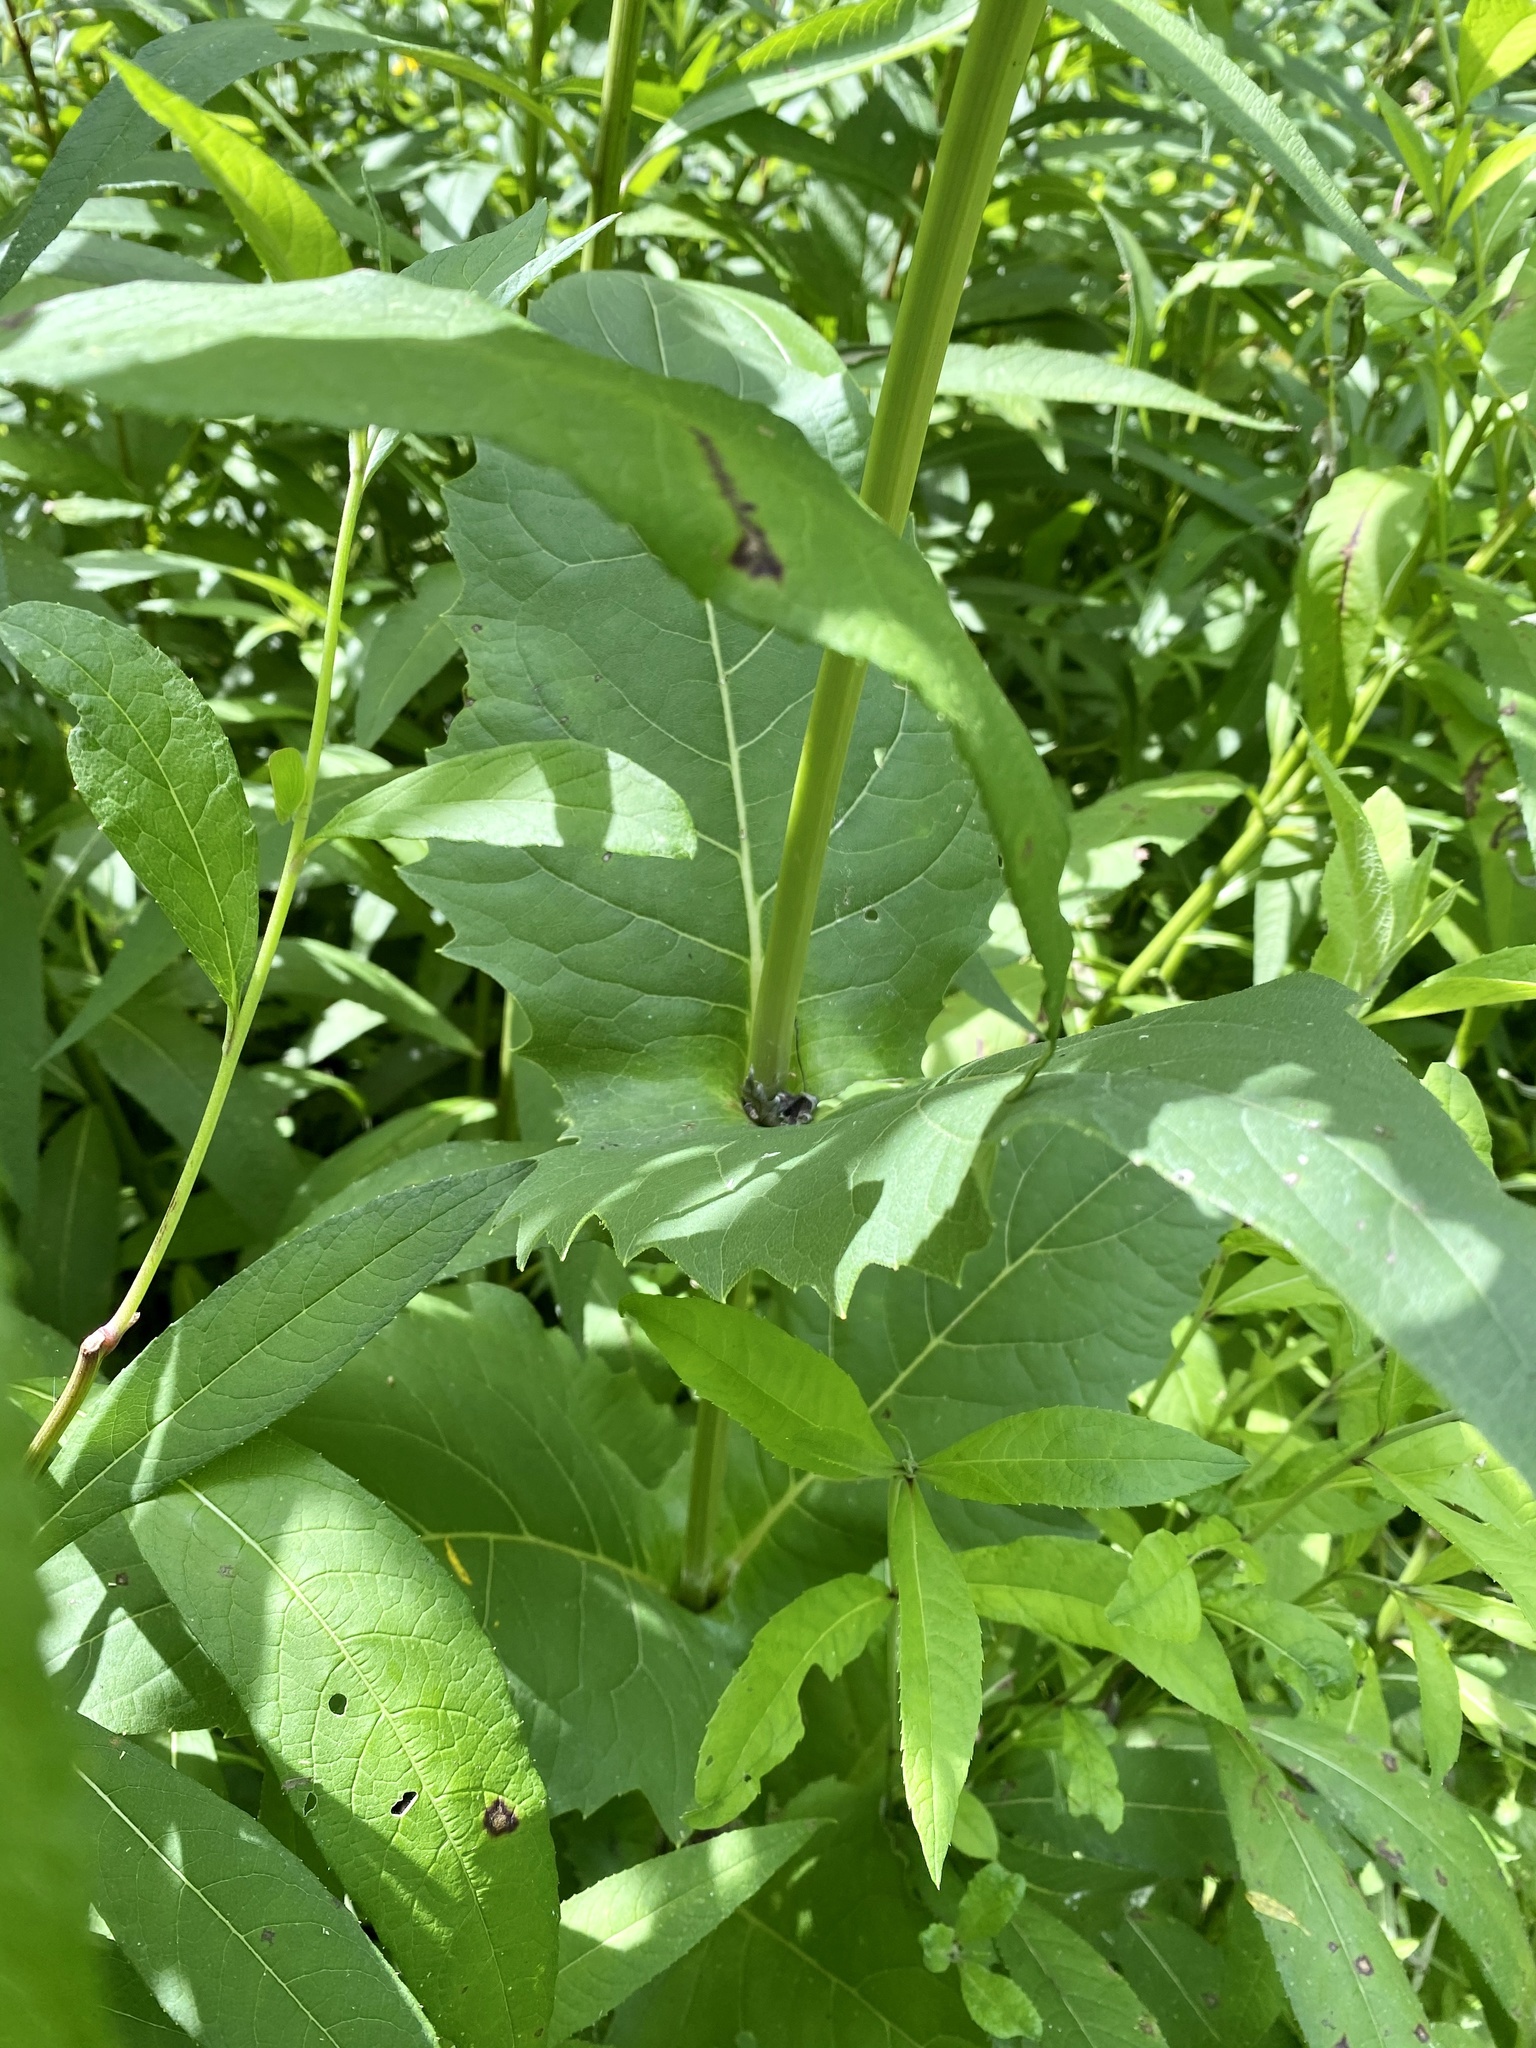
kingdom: Plantae
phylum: Tracheophyta
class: Magnoliopsida
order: Asterales
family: Asteraceae
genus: Silphium
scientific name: Silphium perfoliatum
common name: Cup-plant
